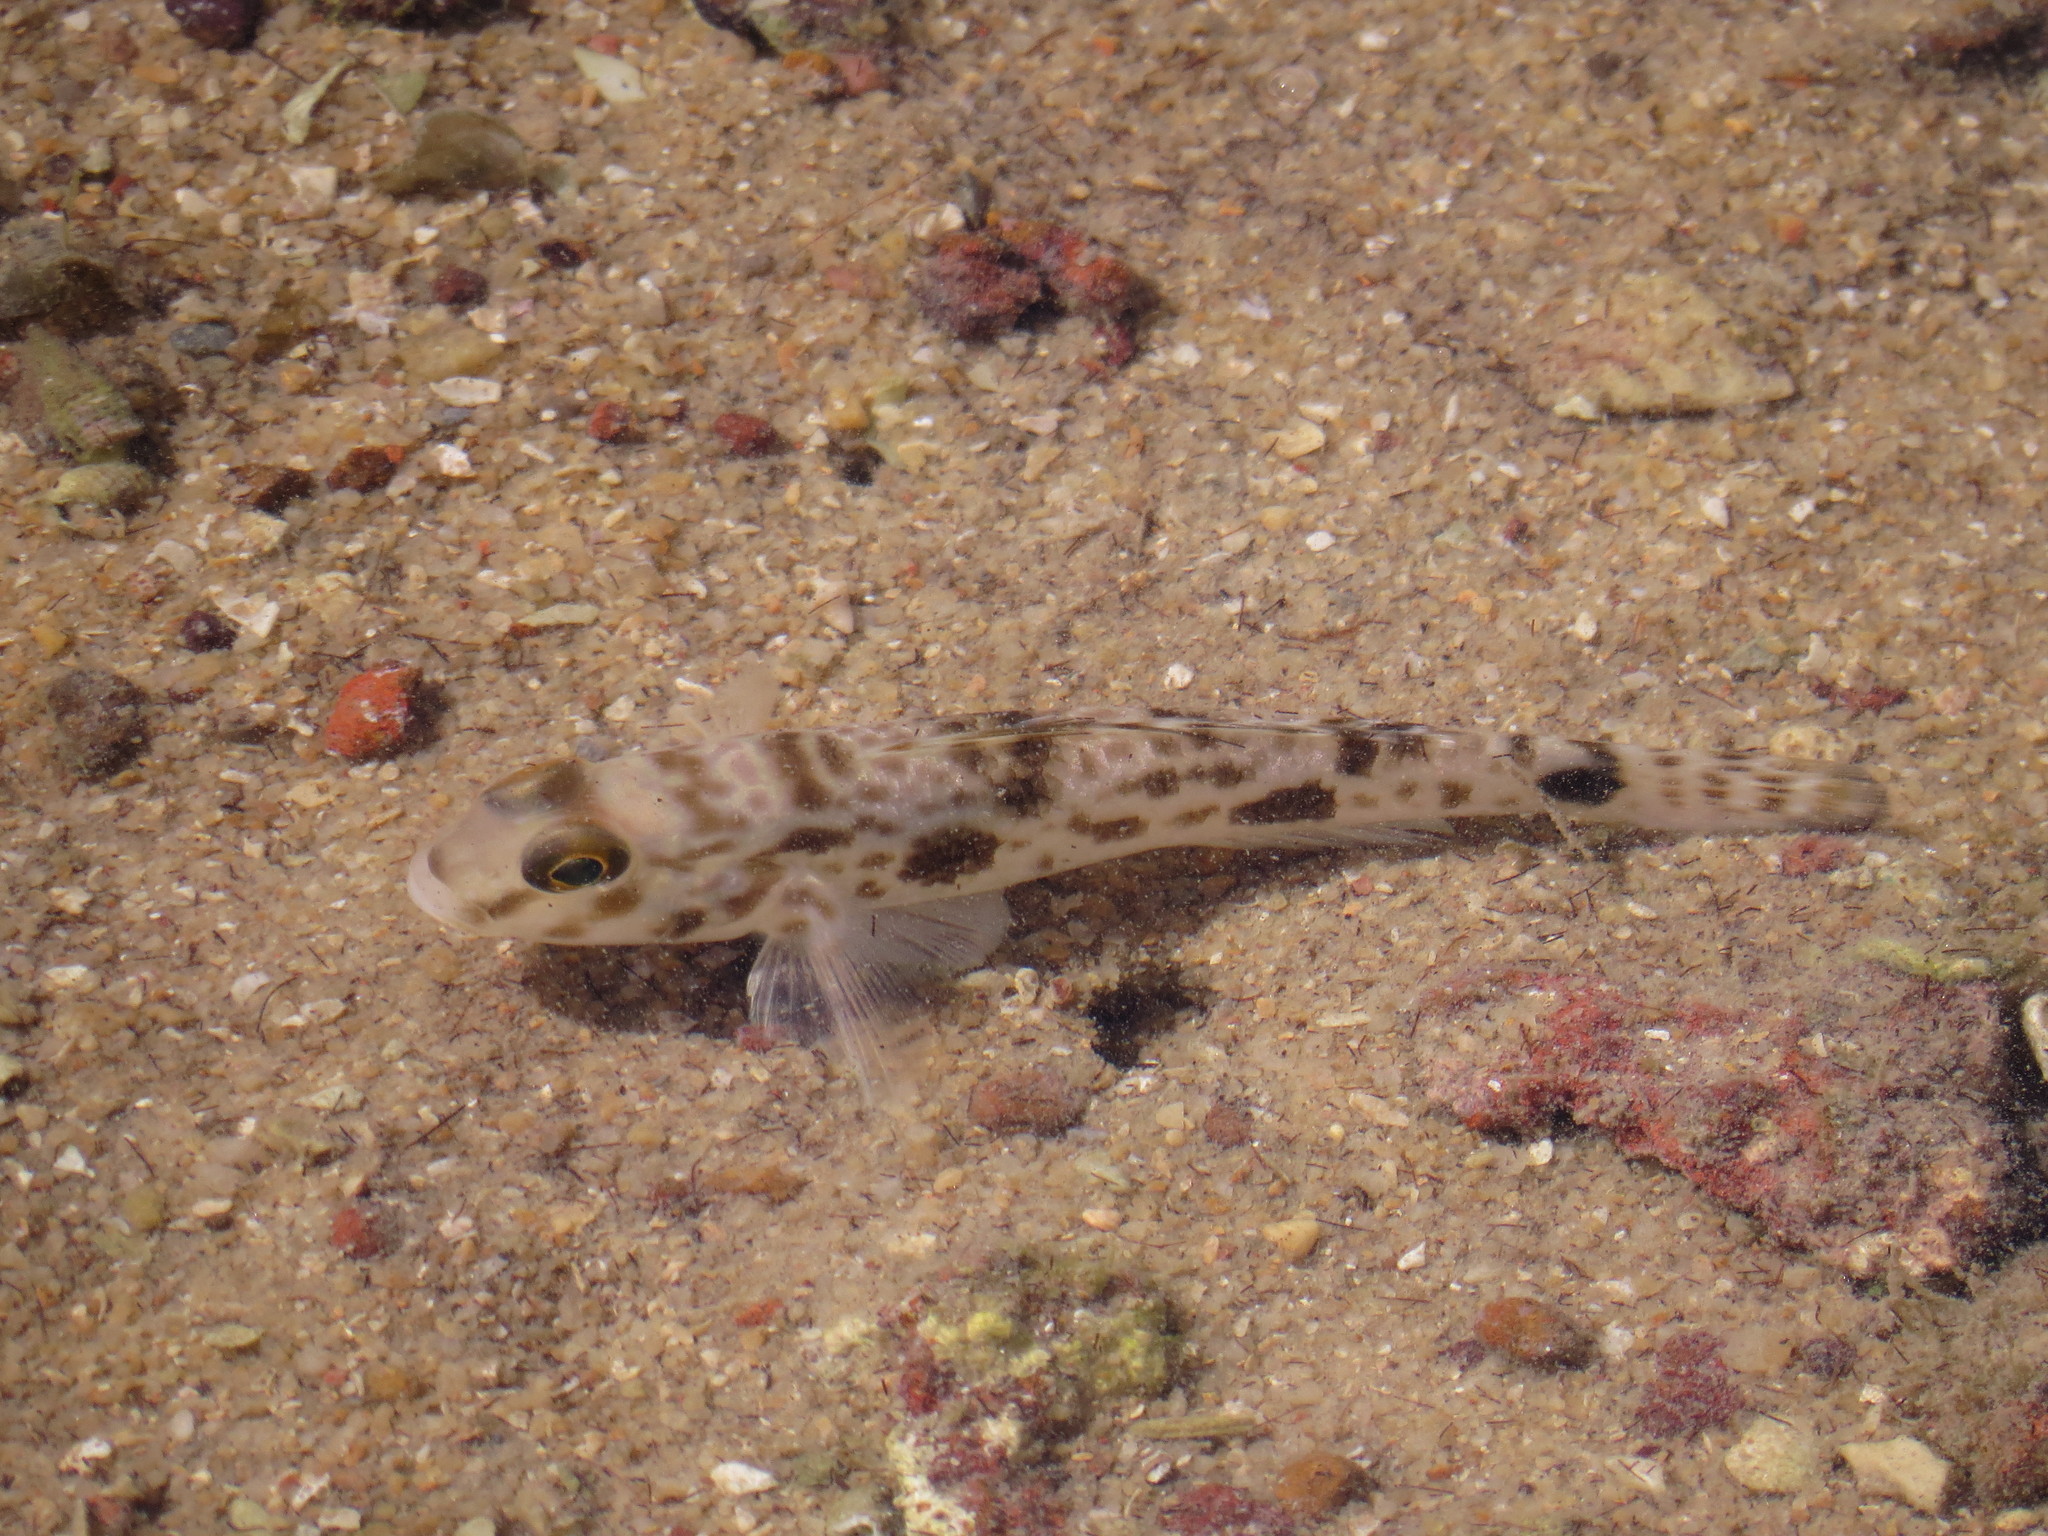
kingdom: Animalia
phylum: Chordata
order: Perciformes
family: Gobiidae
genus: Acentrogobius
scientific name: Acentrogobius nebulosus
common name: Shadow goby
